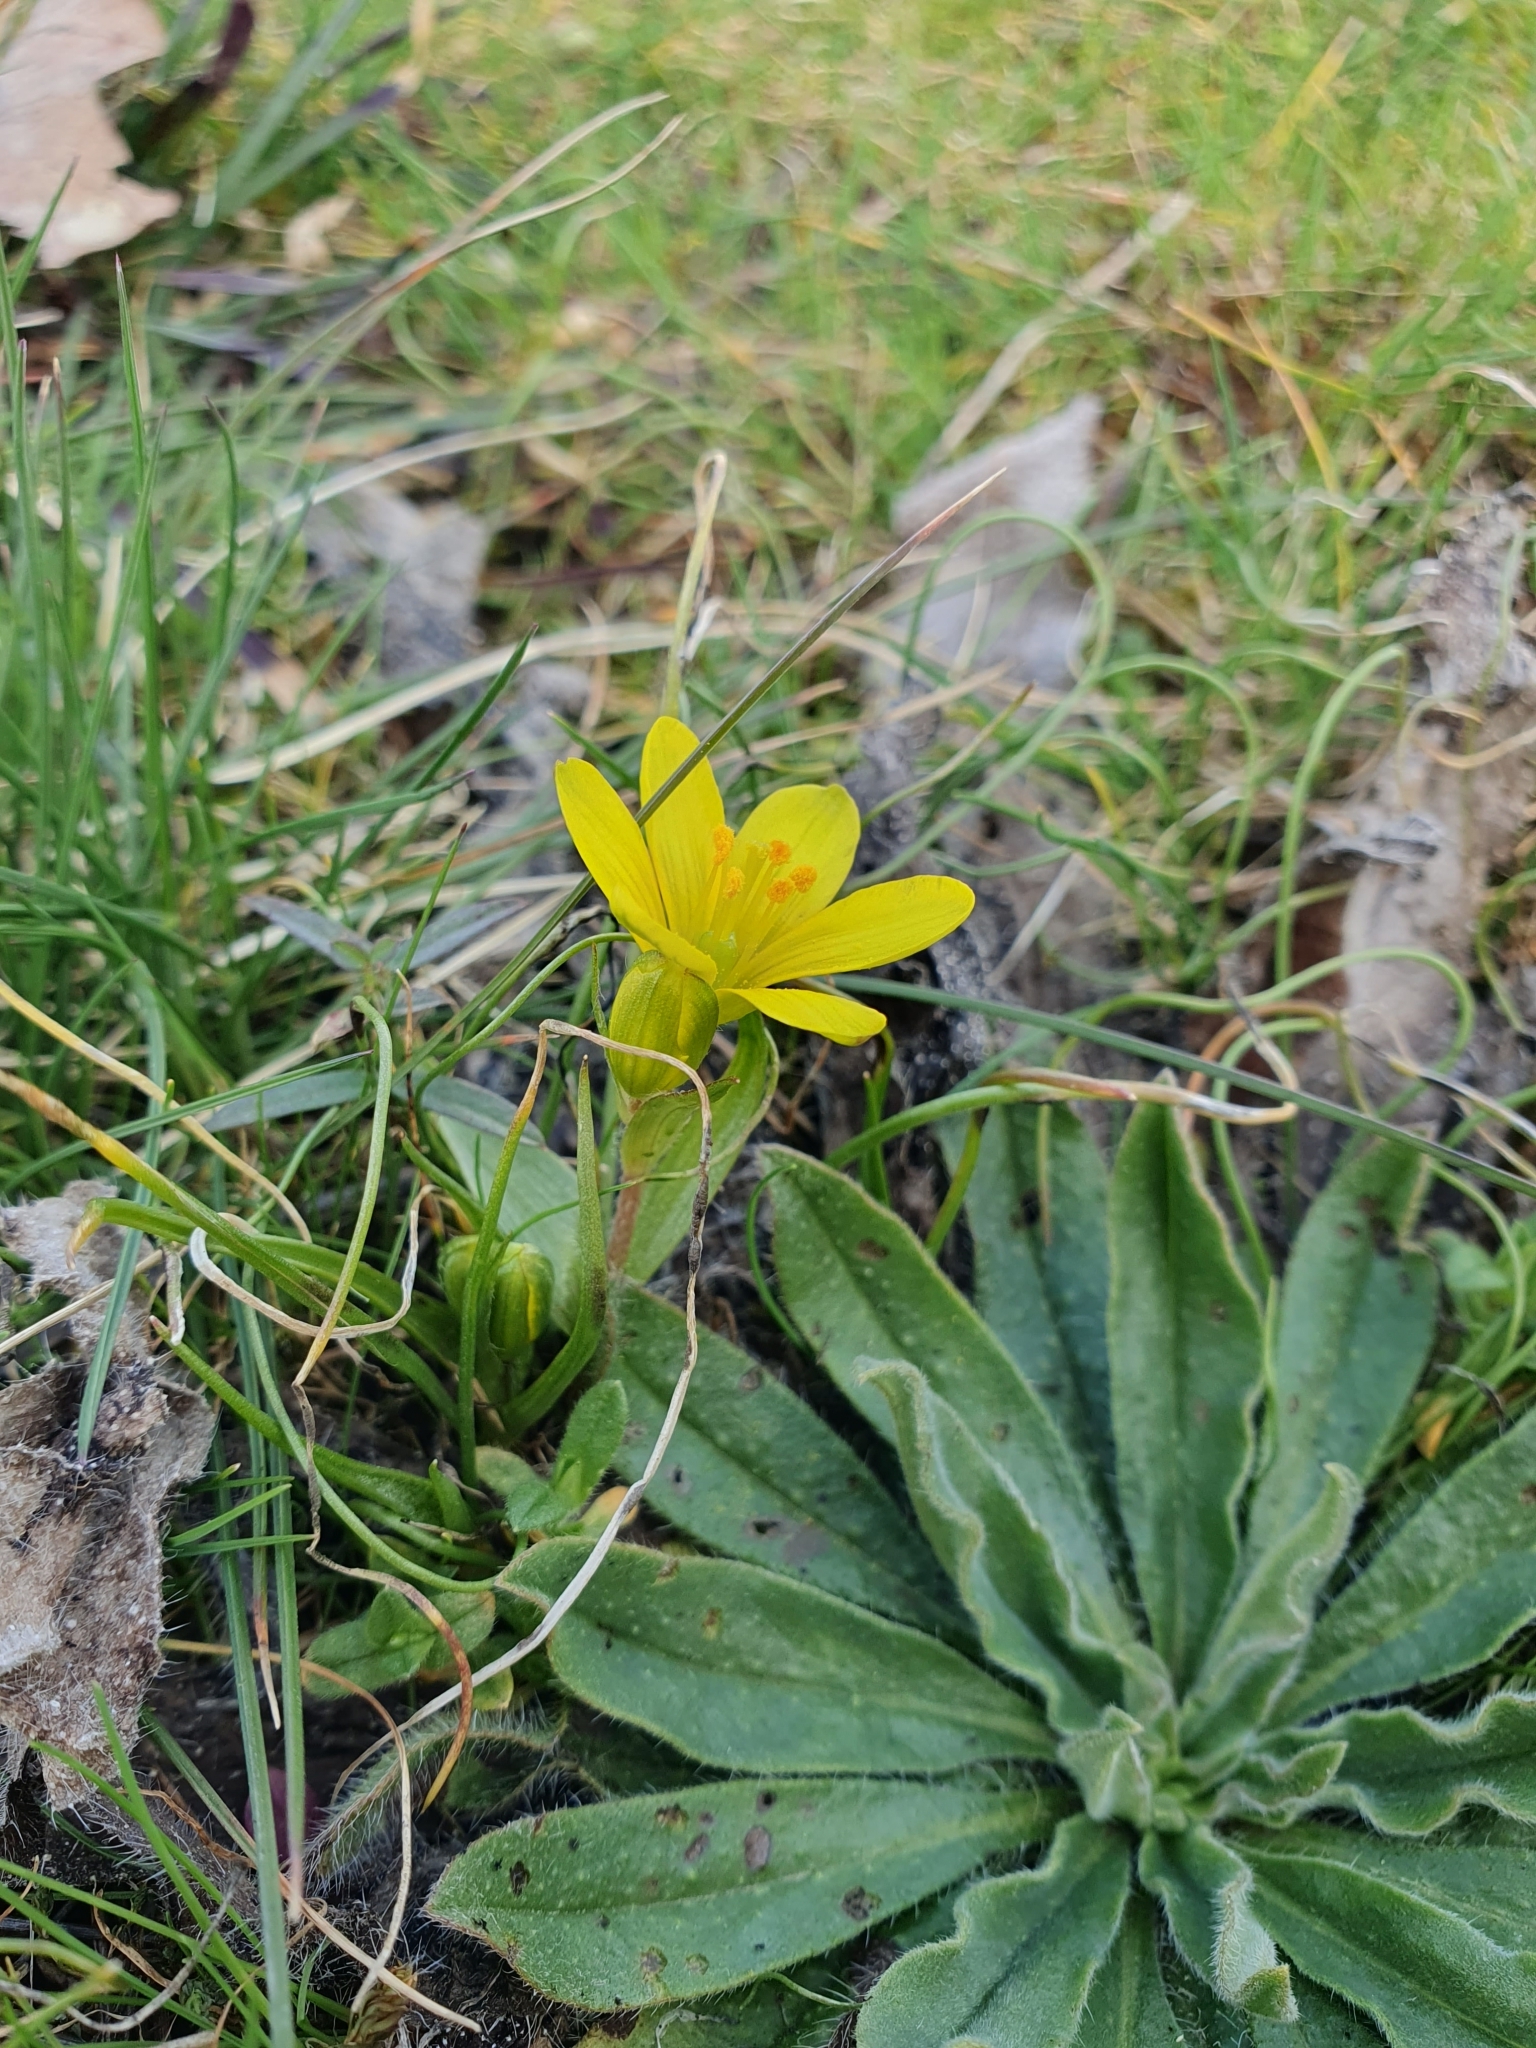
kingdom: Plantae
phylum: Tracheophyta
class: Liliopsida
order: Liliales
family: Liliaceae
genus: Gagea
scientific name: Gagea bohemica
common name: Early star-of-bethlehem
